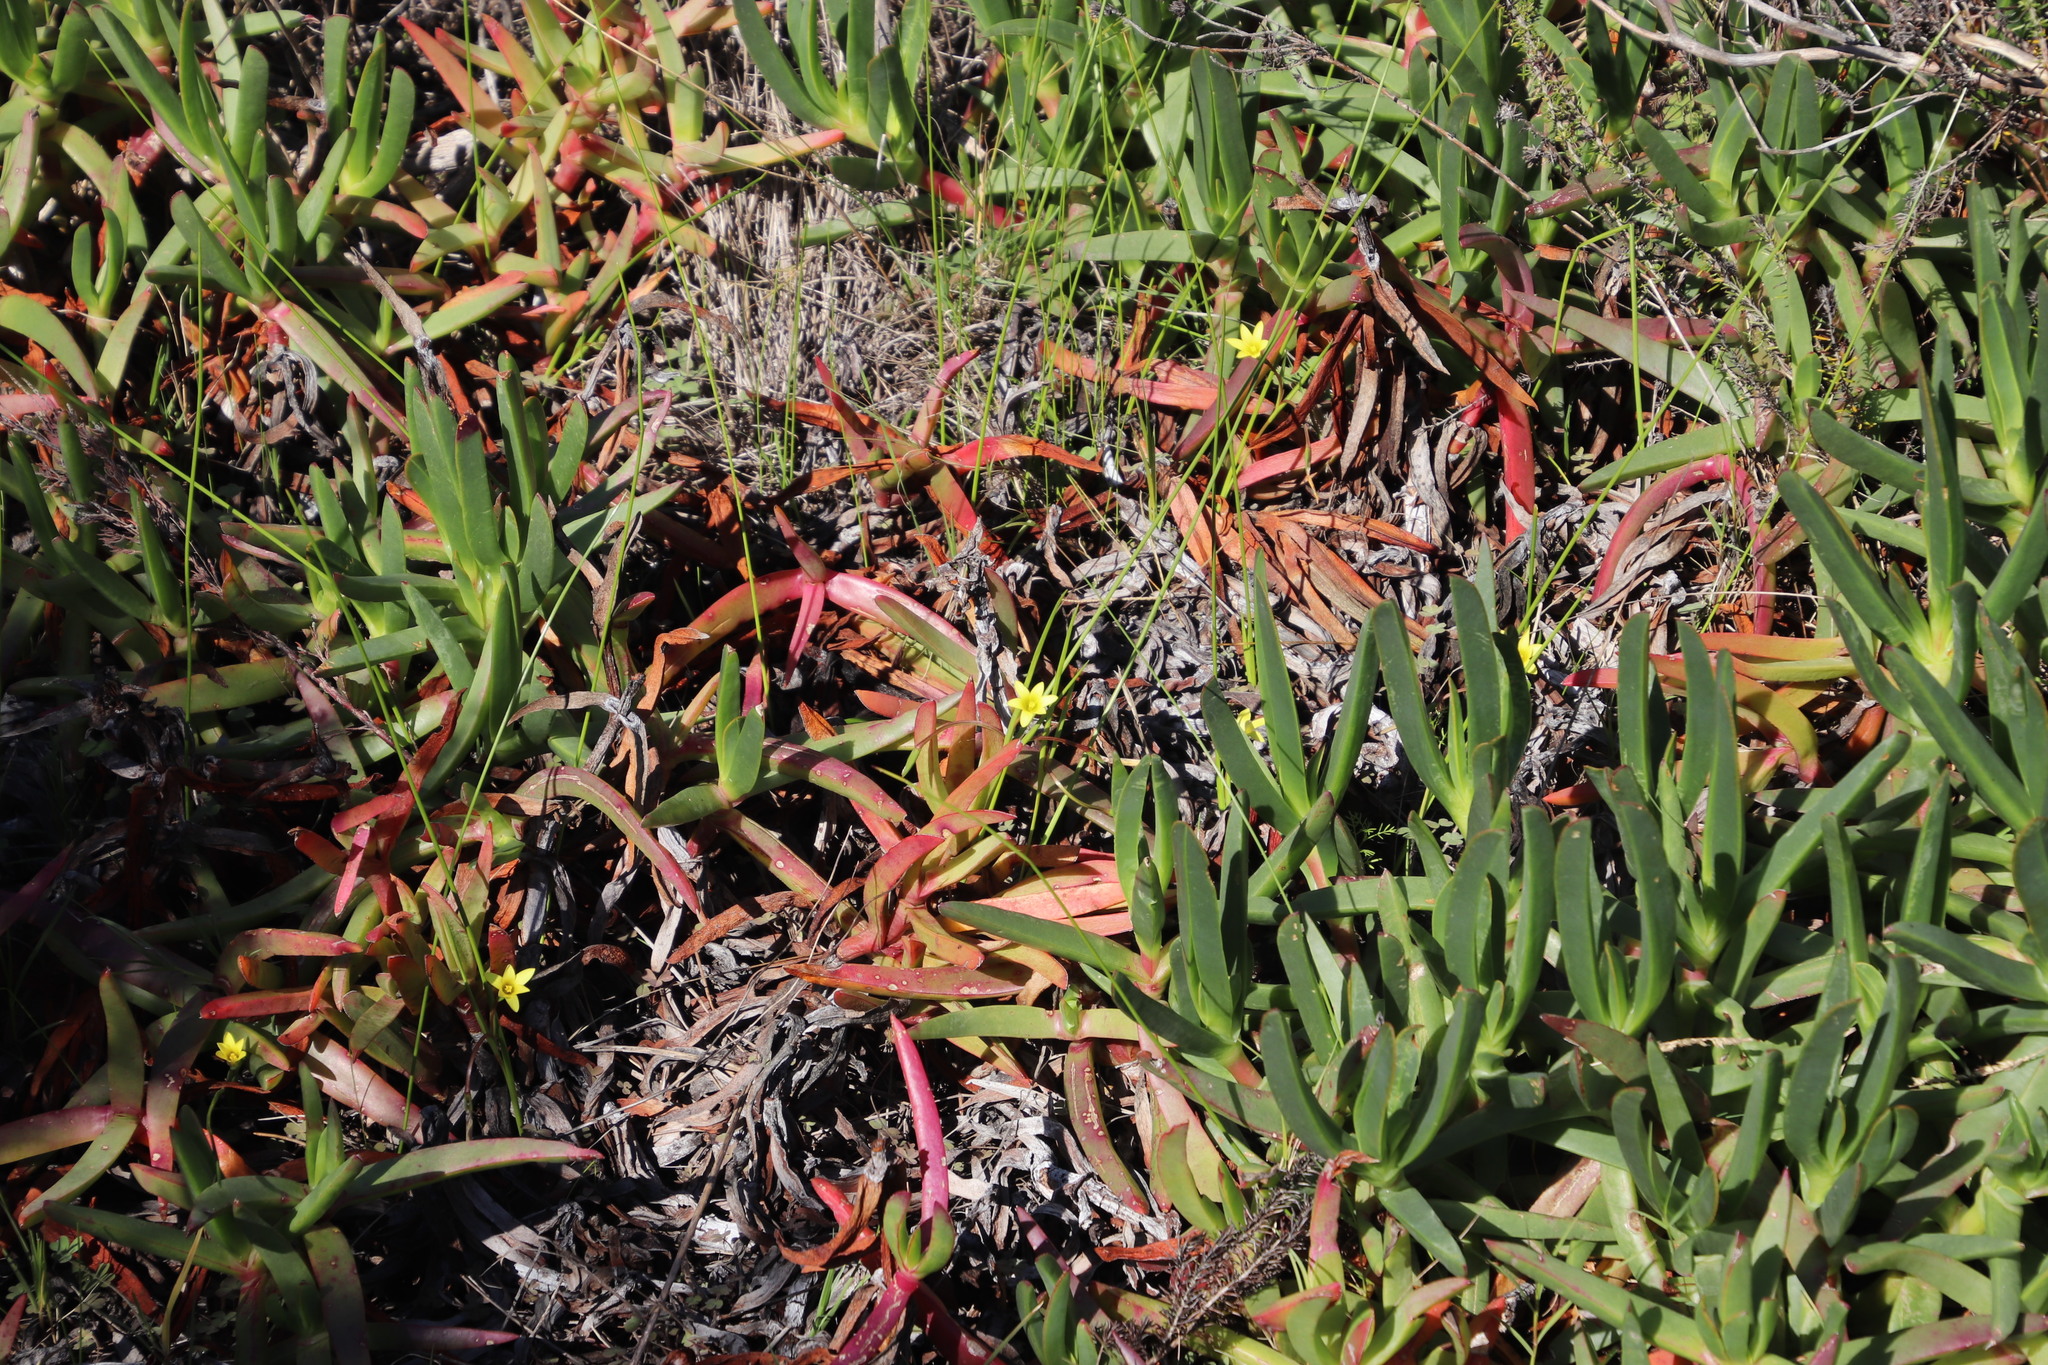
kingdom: Plantae
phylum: Tracheophyta
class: Liliopsida
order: Asparagales
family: Iridaceae
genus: Romulea
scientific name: Romulea flava
